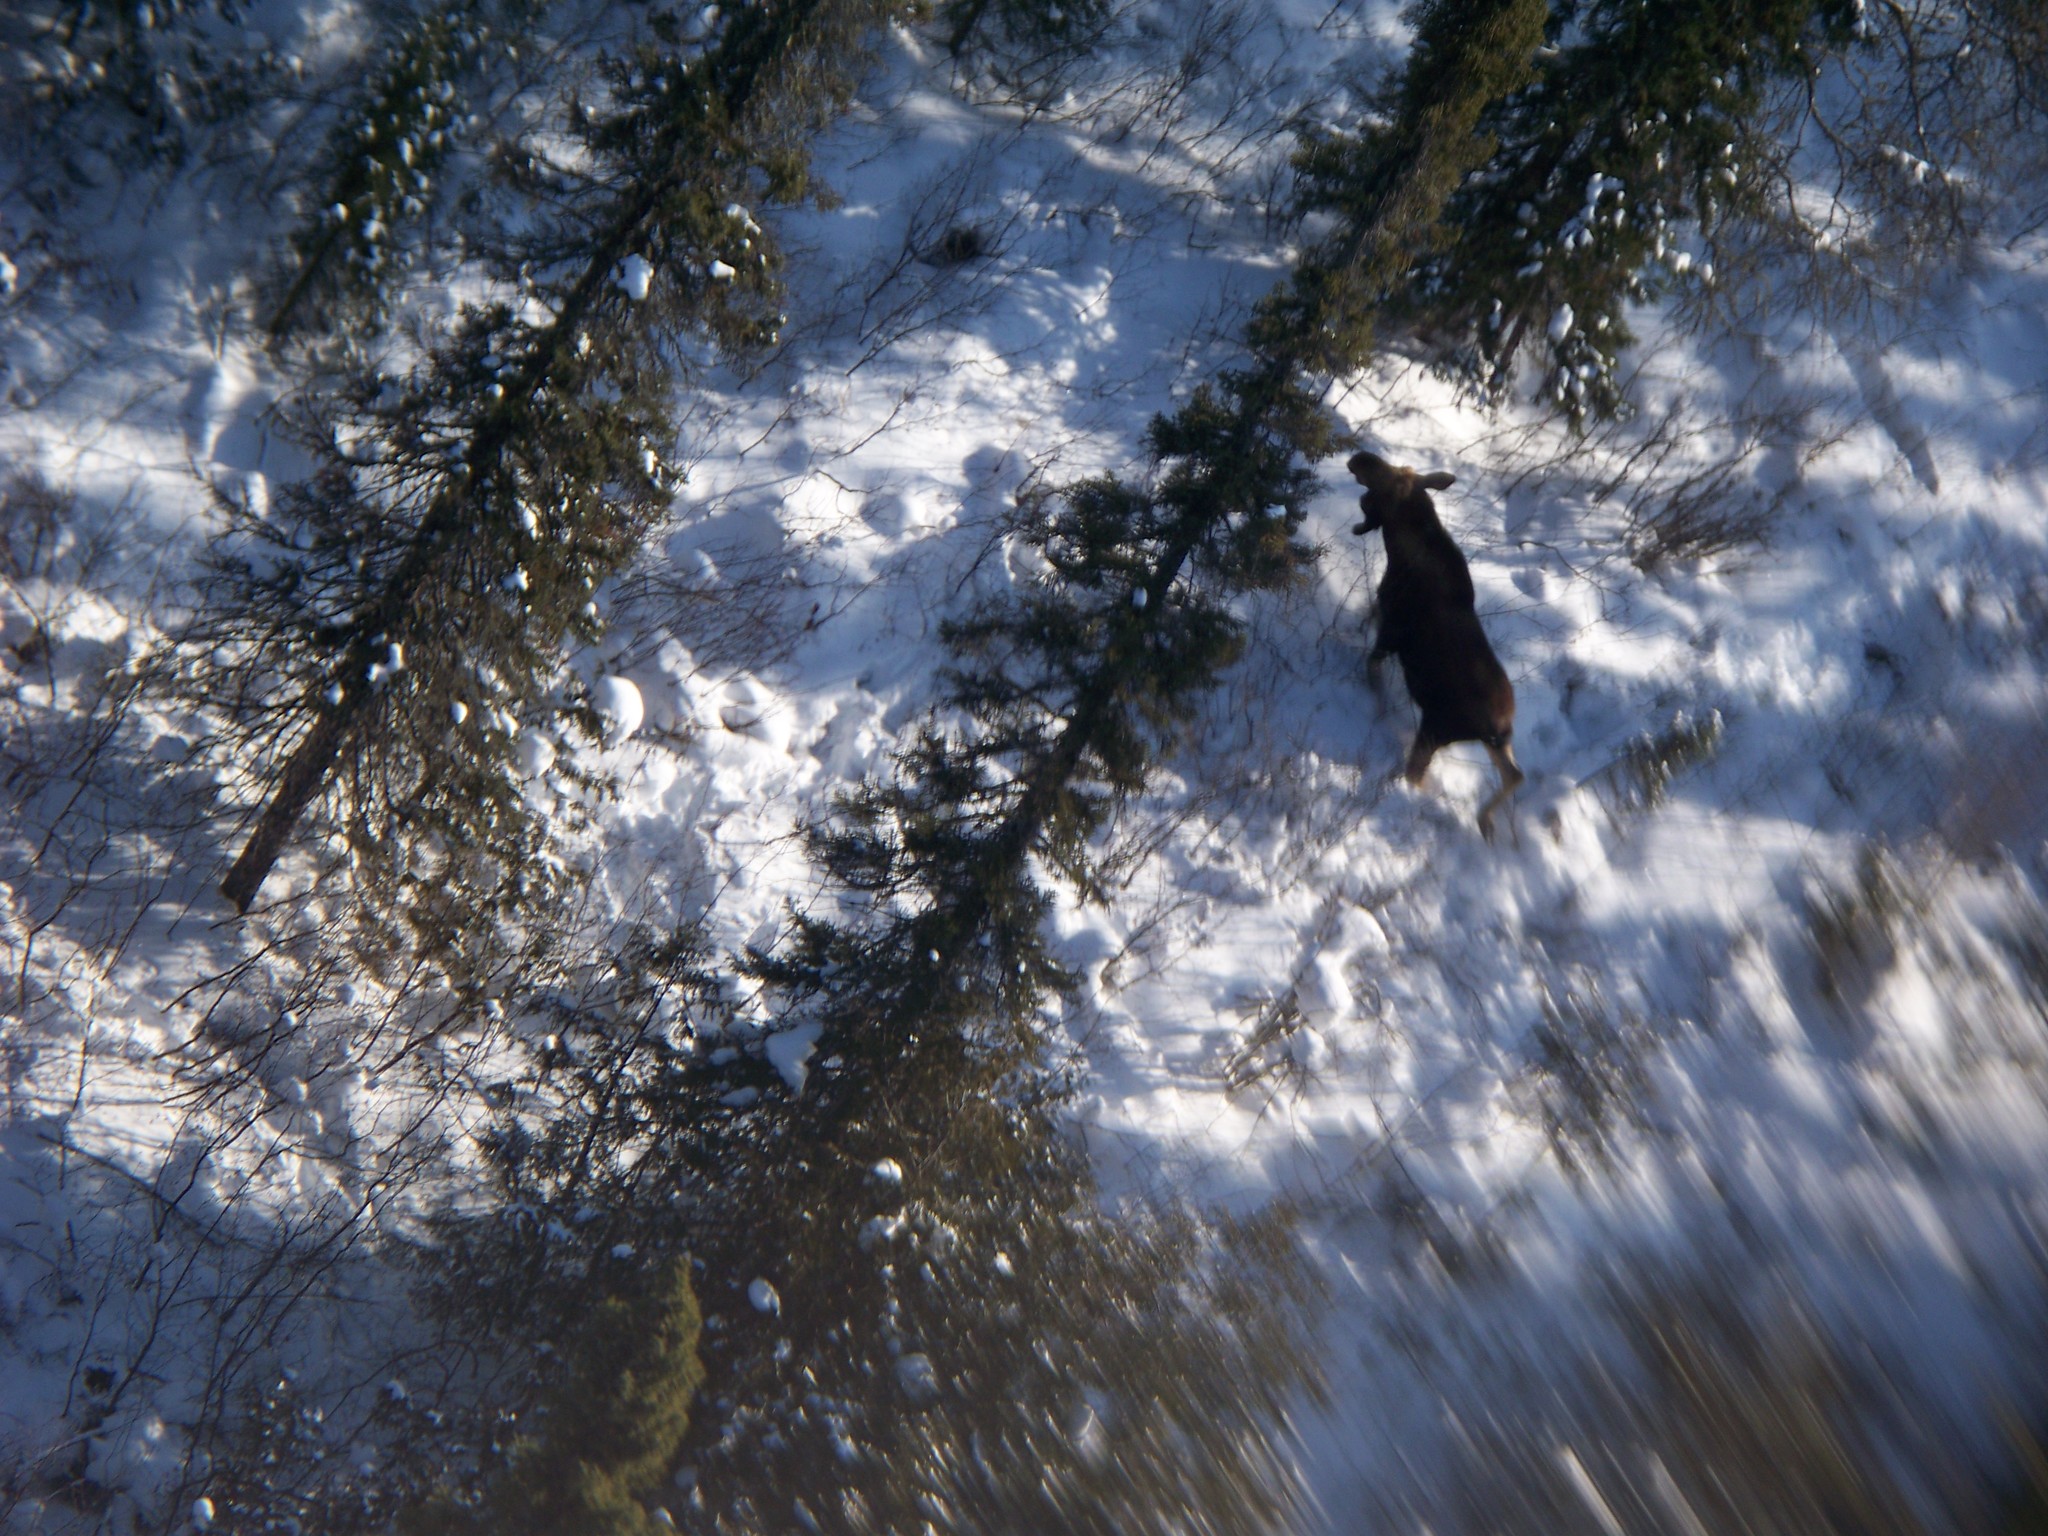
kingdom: Animalia
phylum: Chordata
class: Mammalia
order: Artiodactyla
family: Cervidae
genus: Alces
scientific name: Alces alces
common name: Moose
